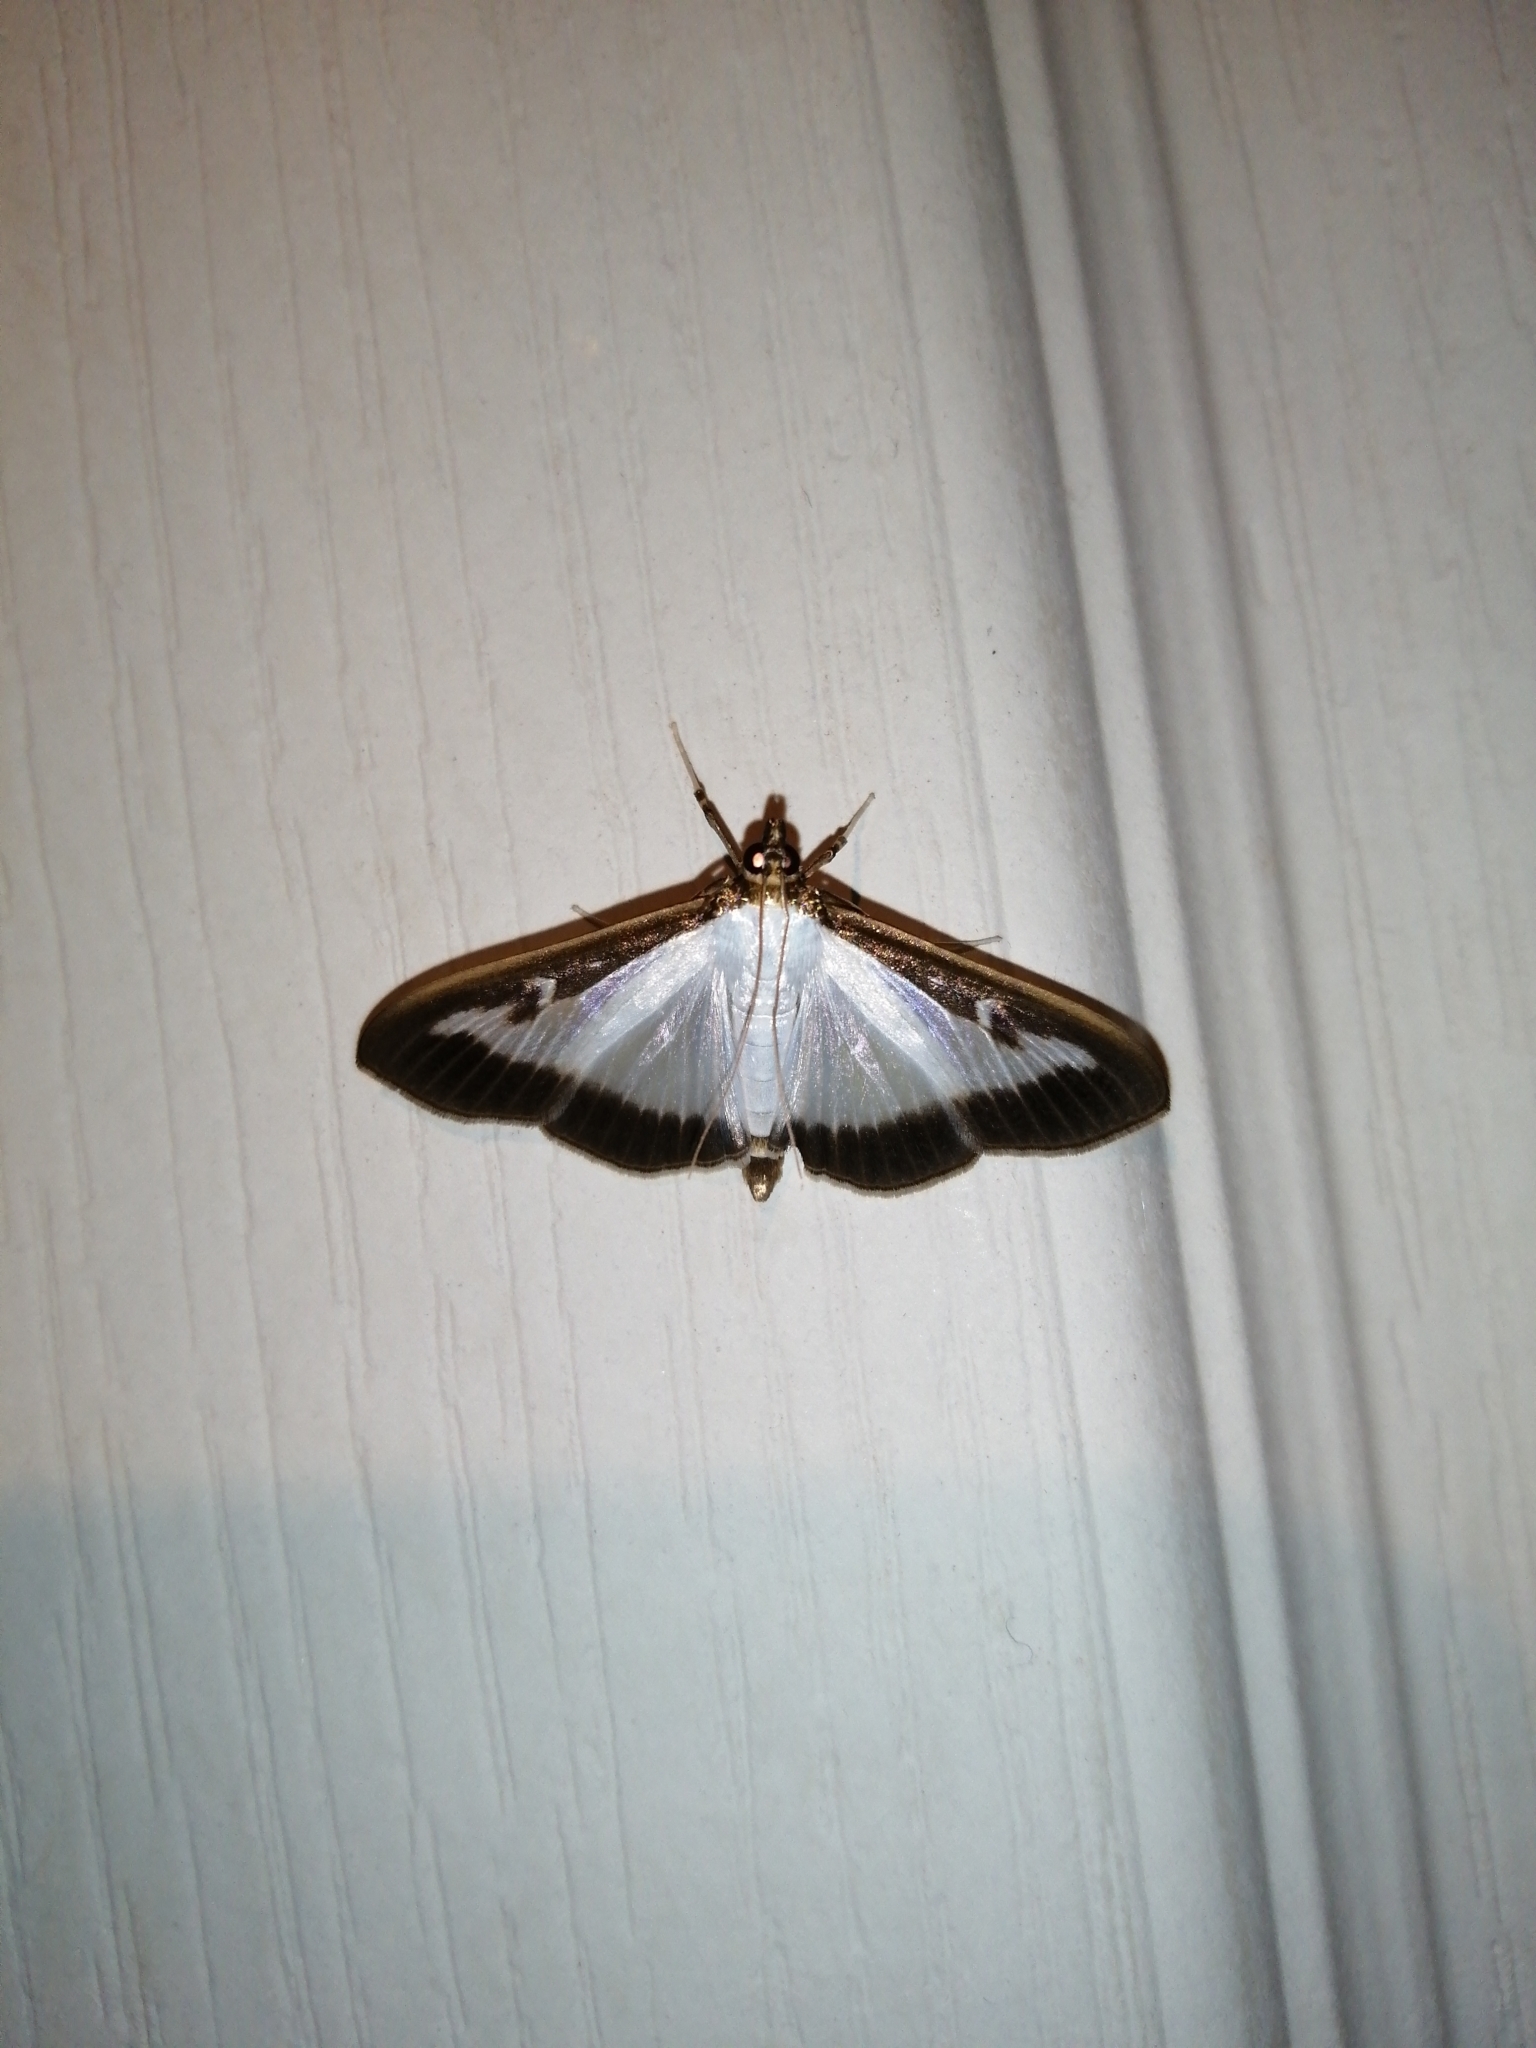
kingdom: Animalia
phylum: Arthropoda
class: Insecta
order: Lepidoptera
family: Crambidae
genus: Cydalima
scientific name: Cydalima perspectalis
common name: Box tree moth
